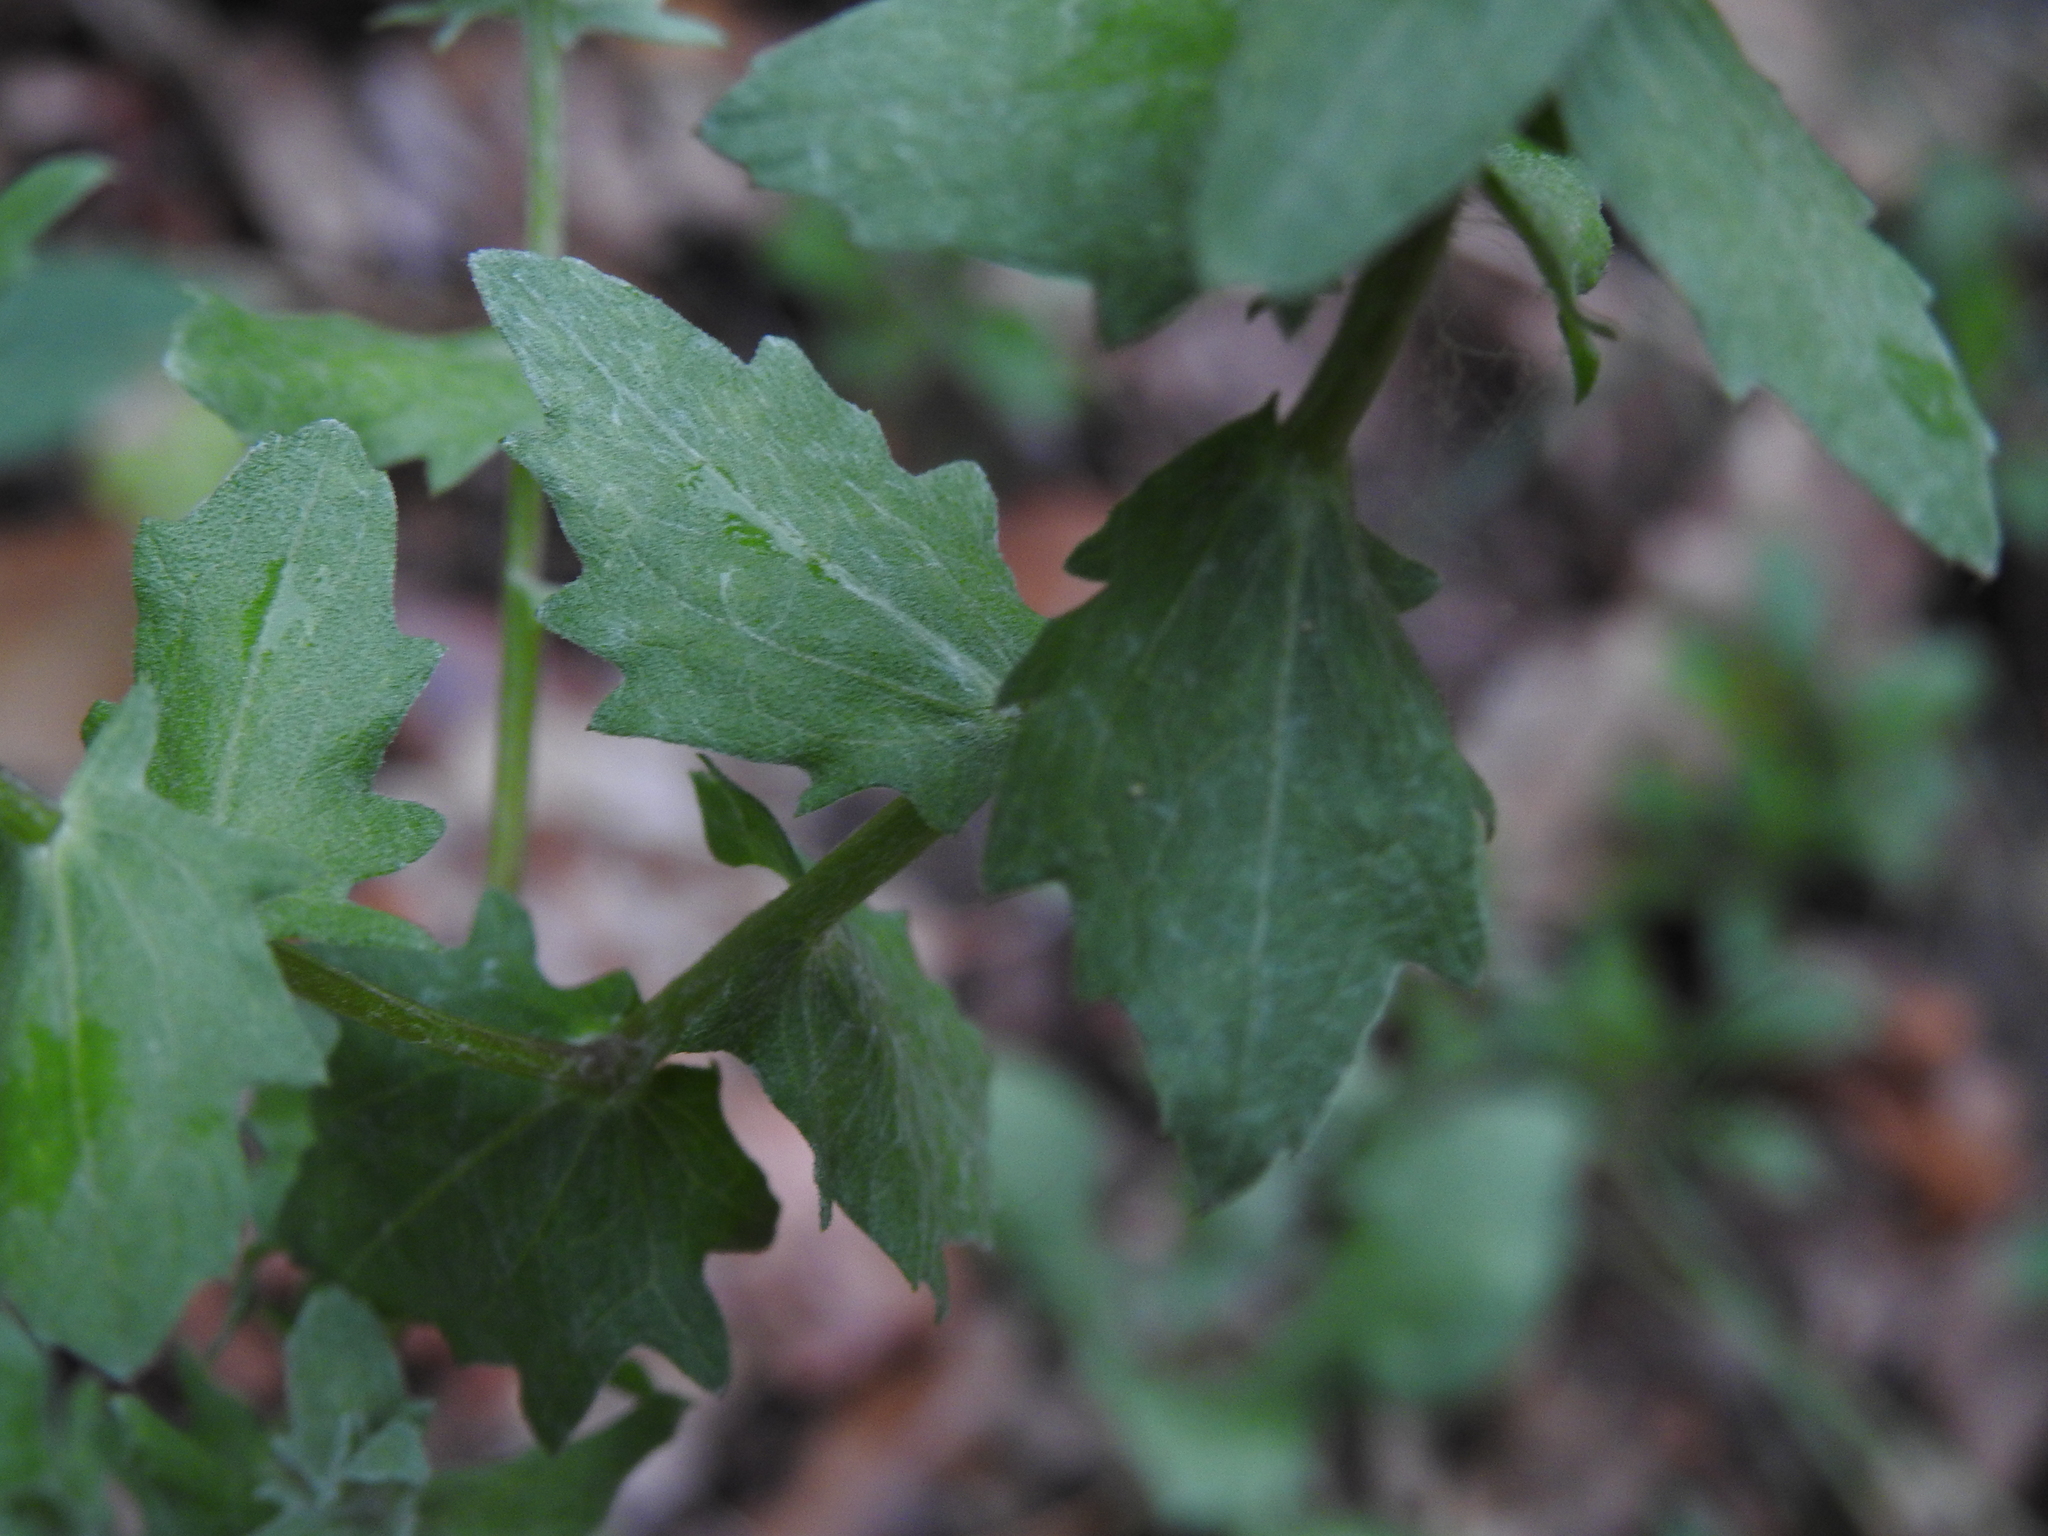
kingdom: Plantae
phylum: Tracheophyta
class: Magnoliopsida
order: Asterales
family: Asteraceae
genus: Centaurea
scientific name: Centaurea pectinata
